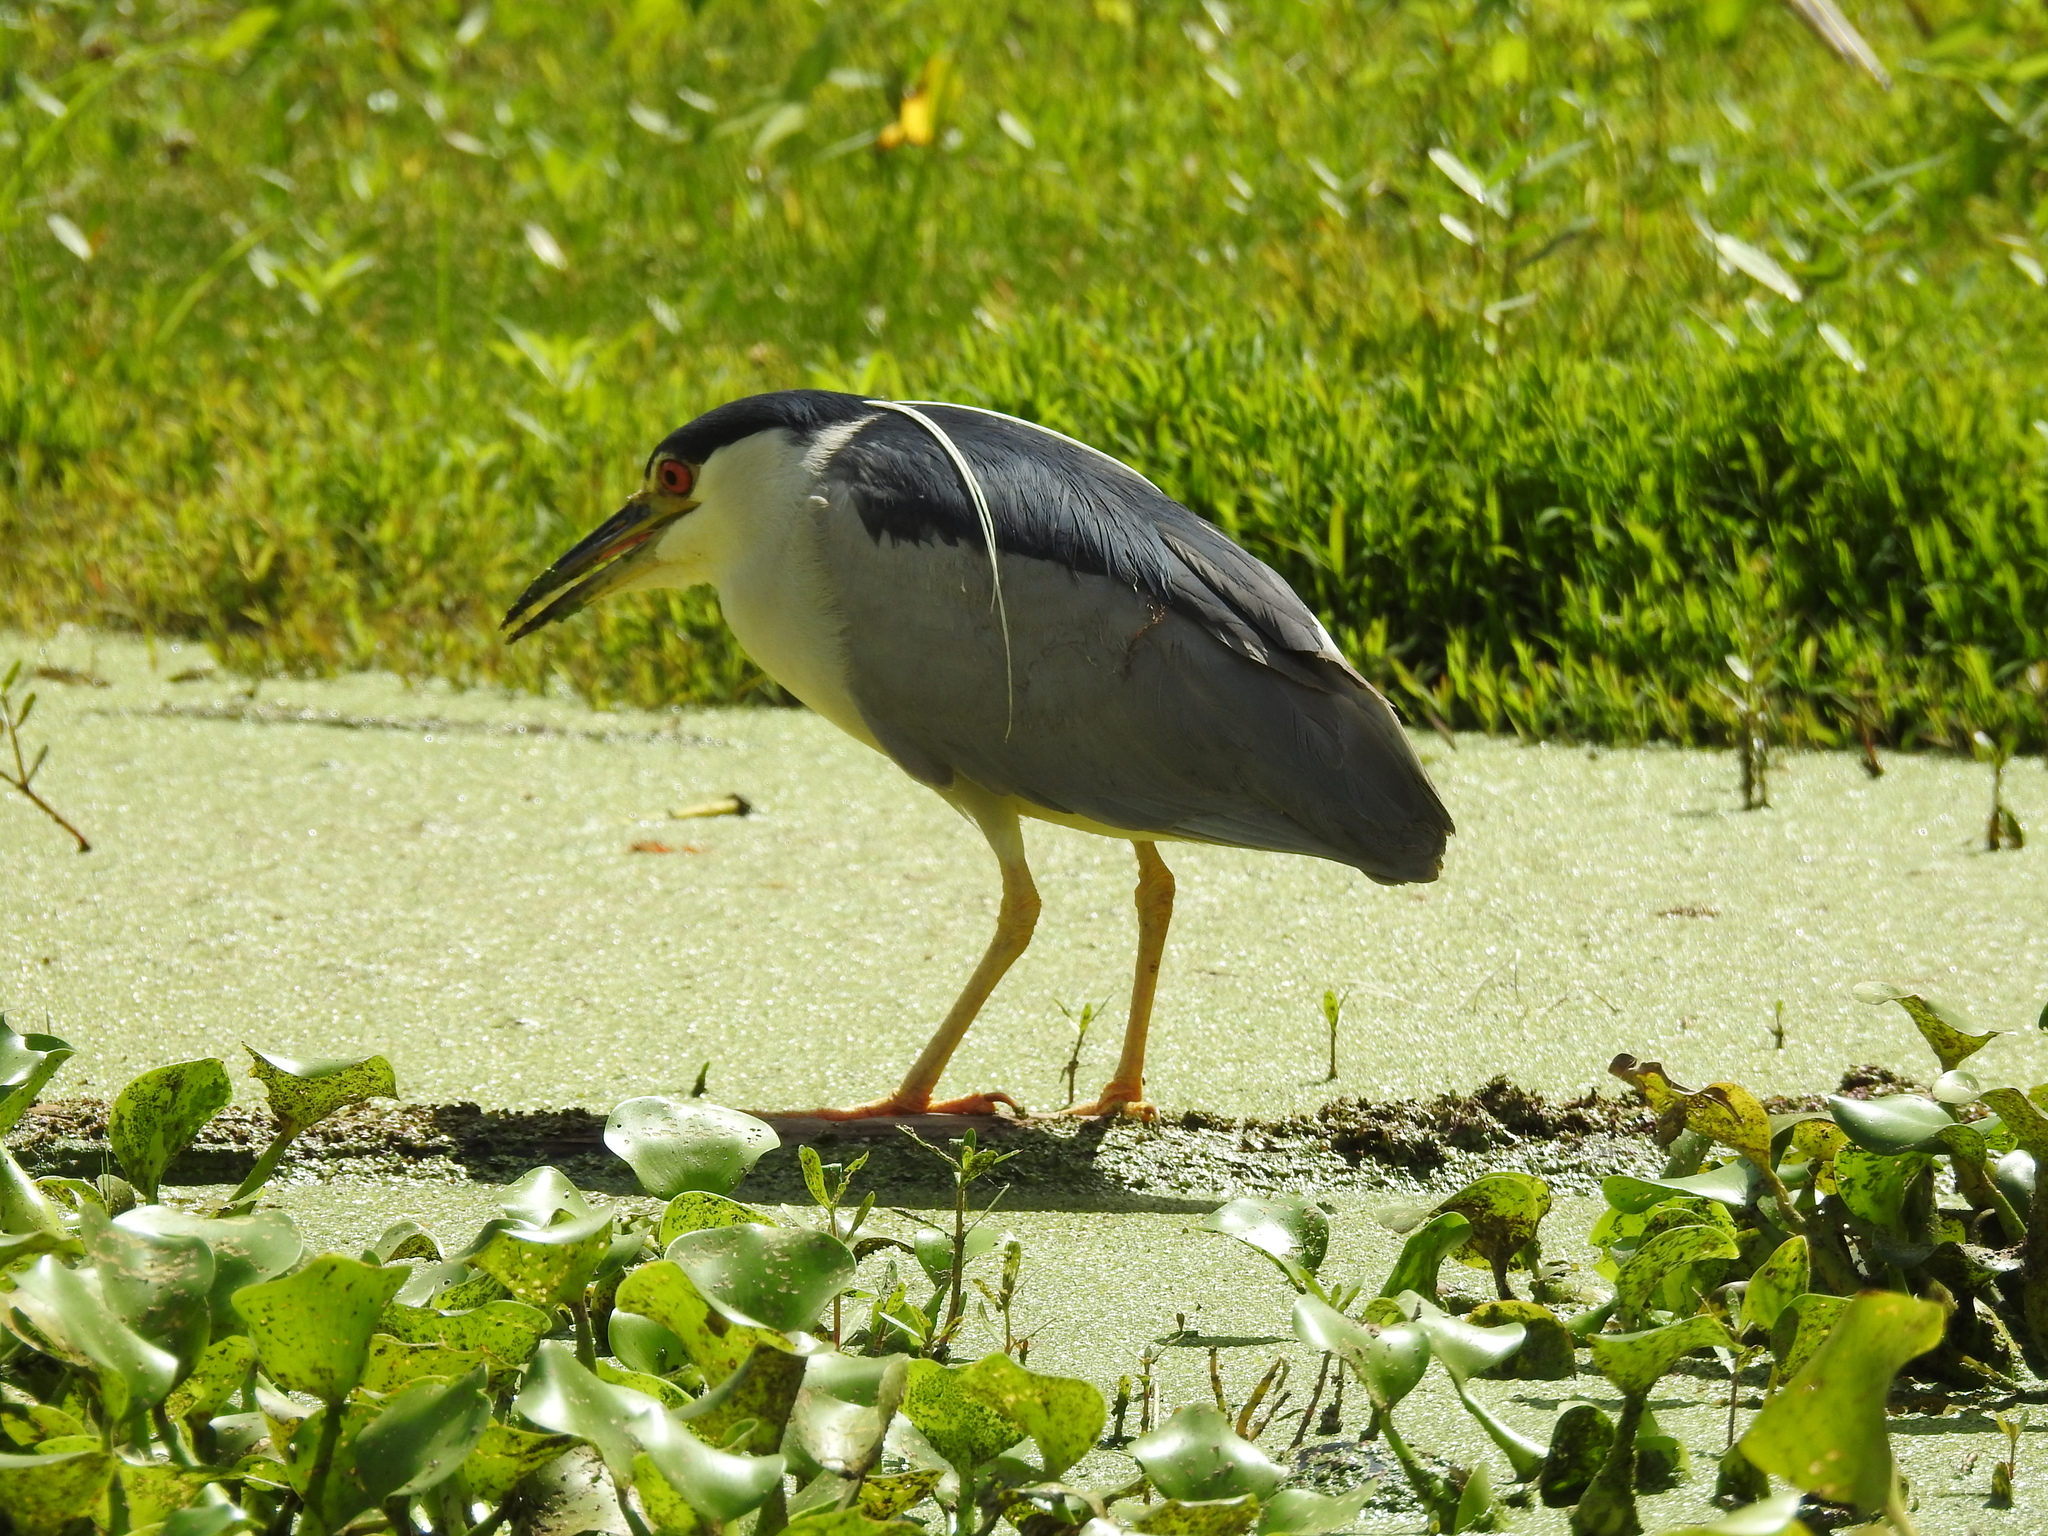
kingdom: Animalia
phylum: Chordata
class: Aves
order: Pelecaniformes
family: Ardeidae
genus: Nycticorax
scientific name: Nycticorax nycticorax
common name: Black-crowned night heron
